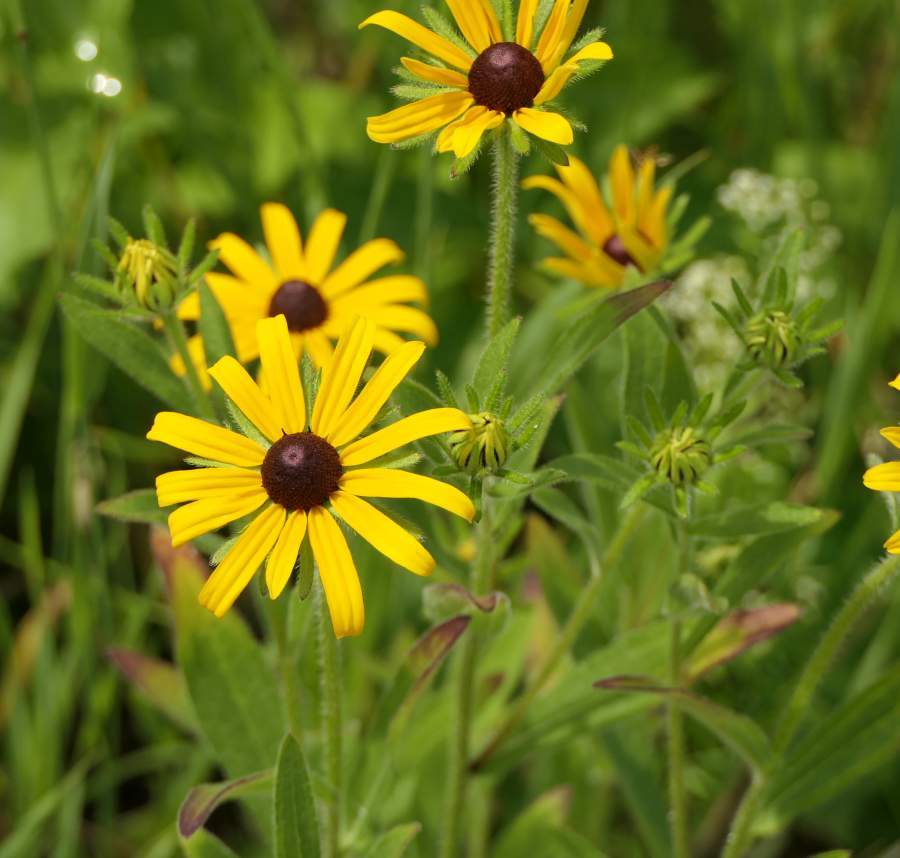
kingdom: Plantae
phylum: Tracheophyta
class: Magnoliopsida
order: Asterales
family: Asteraceae
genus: Rudbeckia
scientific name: Rudbeckia hirta
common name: Black-eyed-susan
